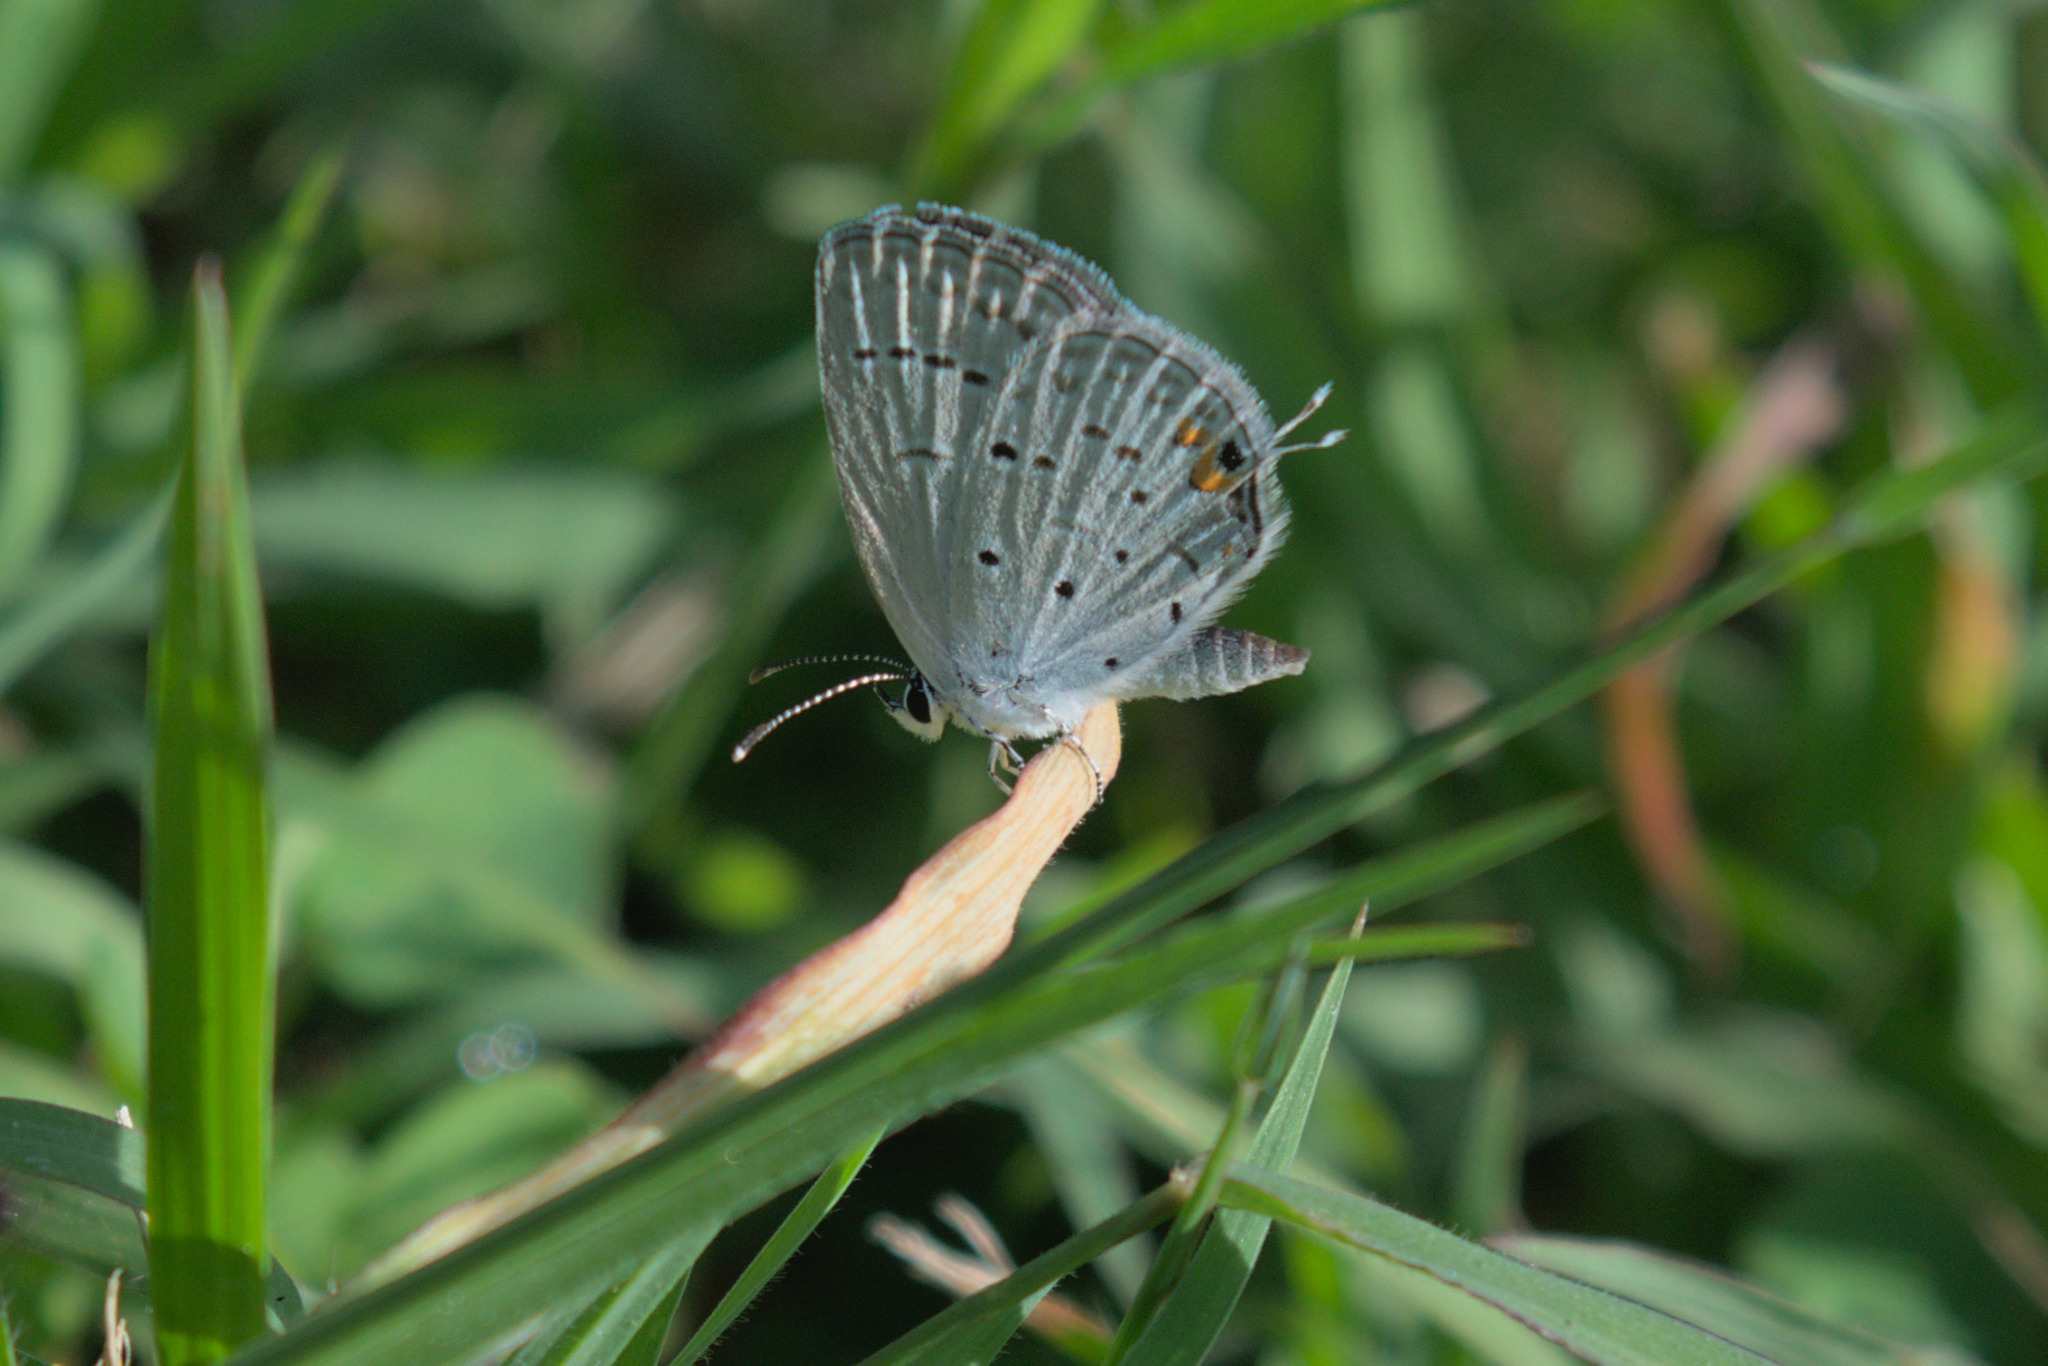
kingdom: Animalia
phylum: Arthropoda
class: Insecta
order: Lepidoptera
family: Lycaenidae
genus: Elkalyce
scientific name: Elkalyce comyntas
